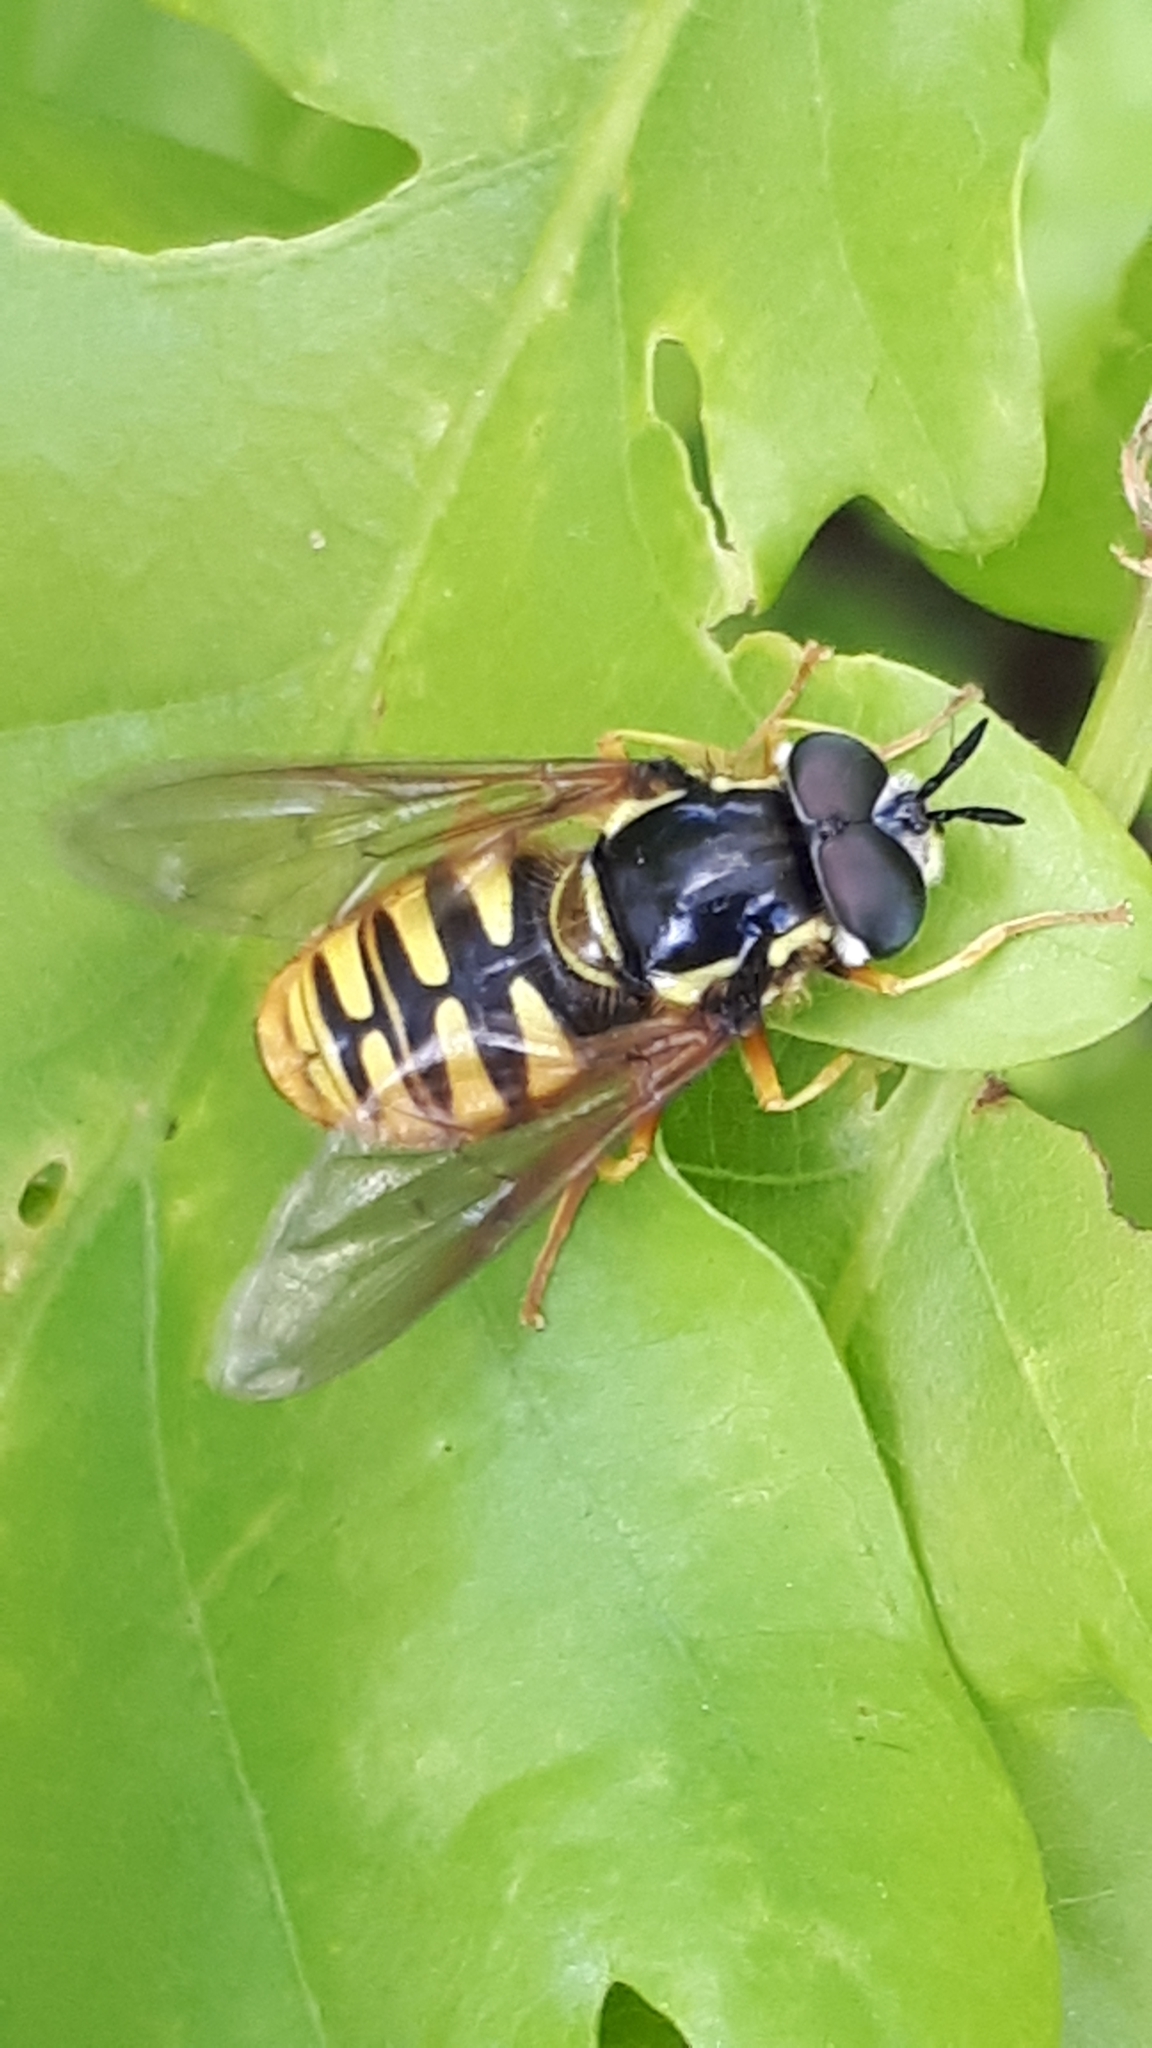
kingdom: Animalia
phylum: Arthropoda
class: Insecta
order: Diptera
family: Syrphidae
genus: Chrysotoxum
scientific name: Chrysotoxum cautum
